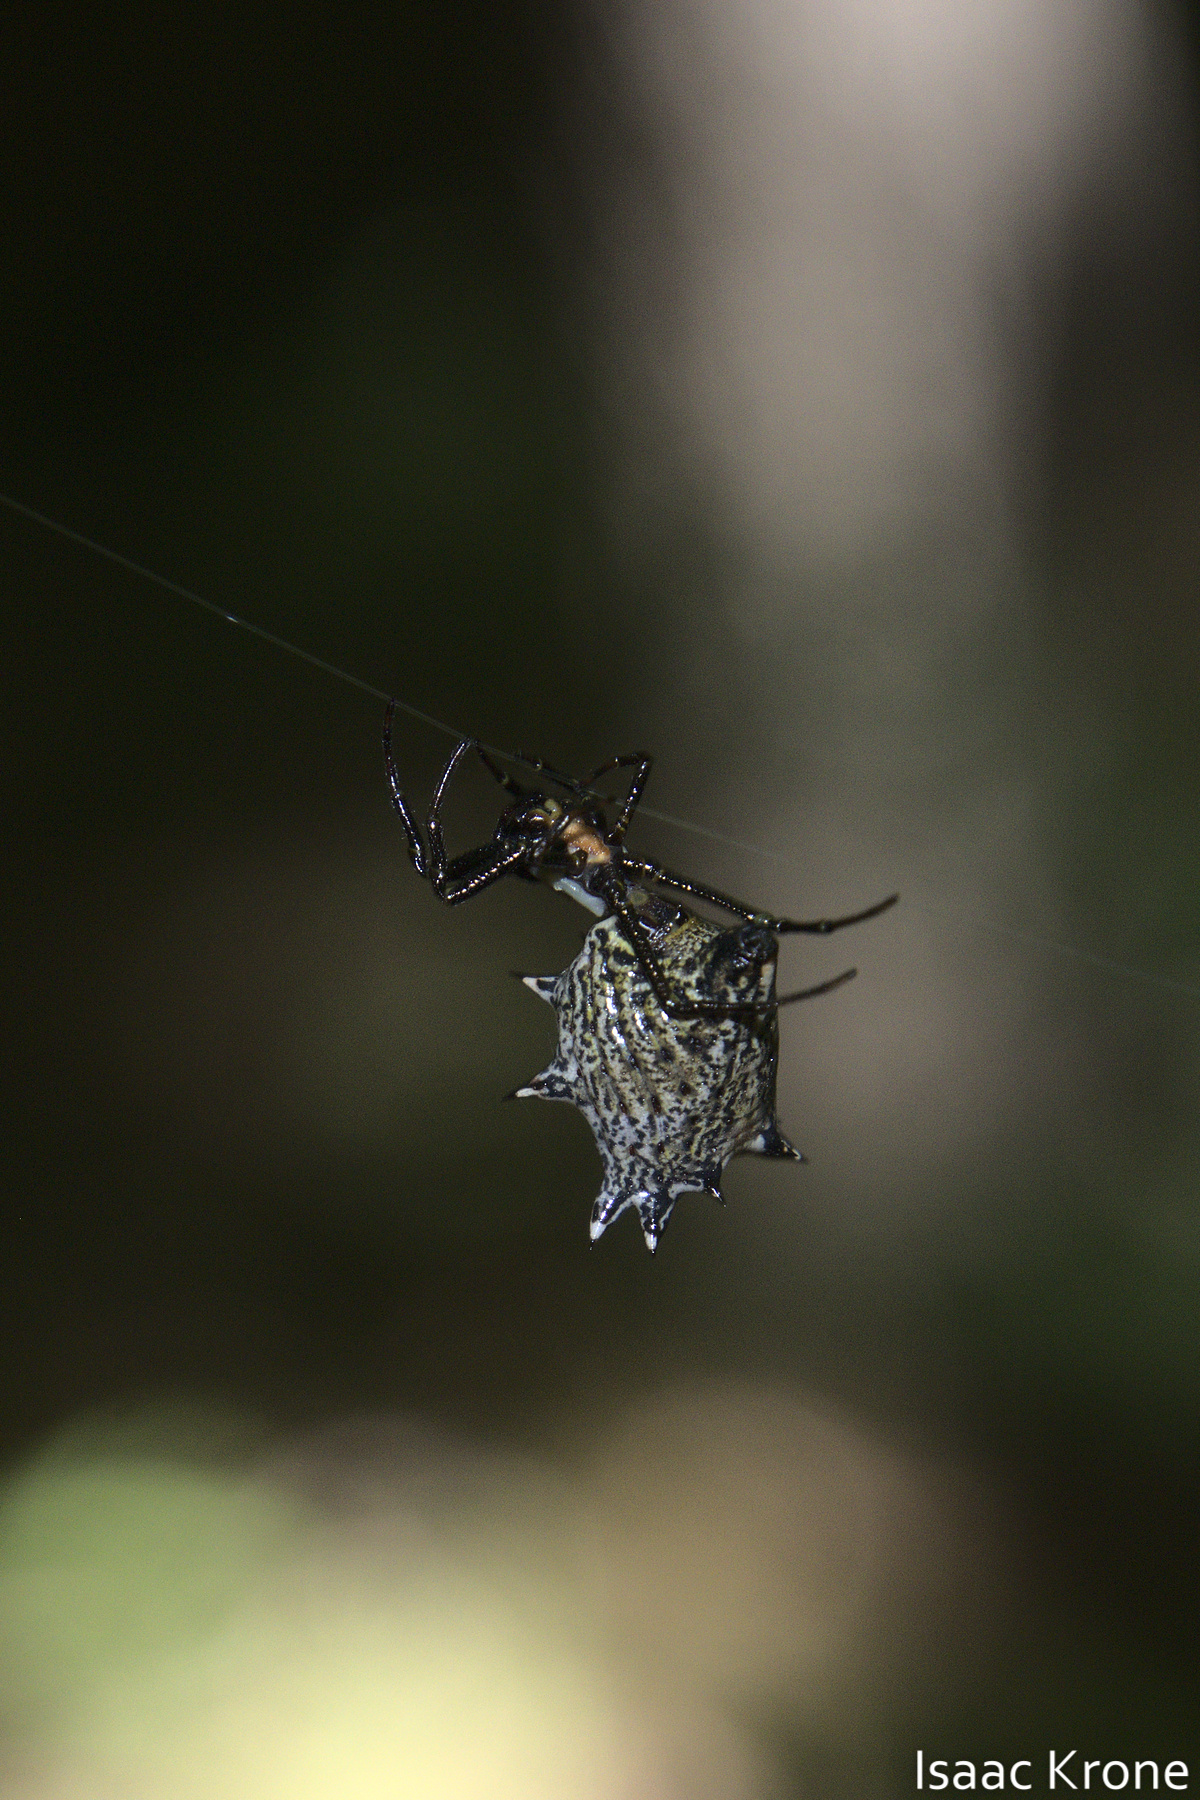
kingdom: Animalia
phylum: Arthropoda
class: Arachnida
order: Araneae
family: Araneidae
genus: Micrathena
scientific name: Micrathena gracilis
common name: Orb weavers
